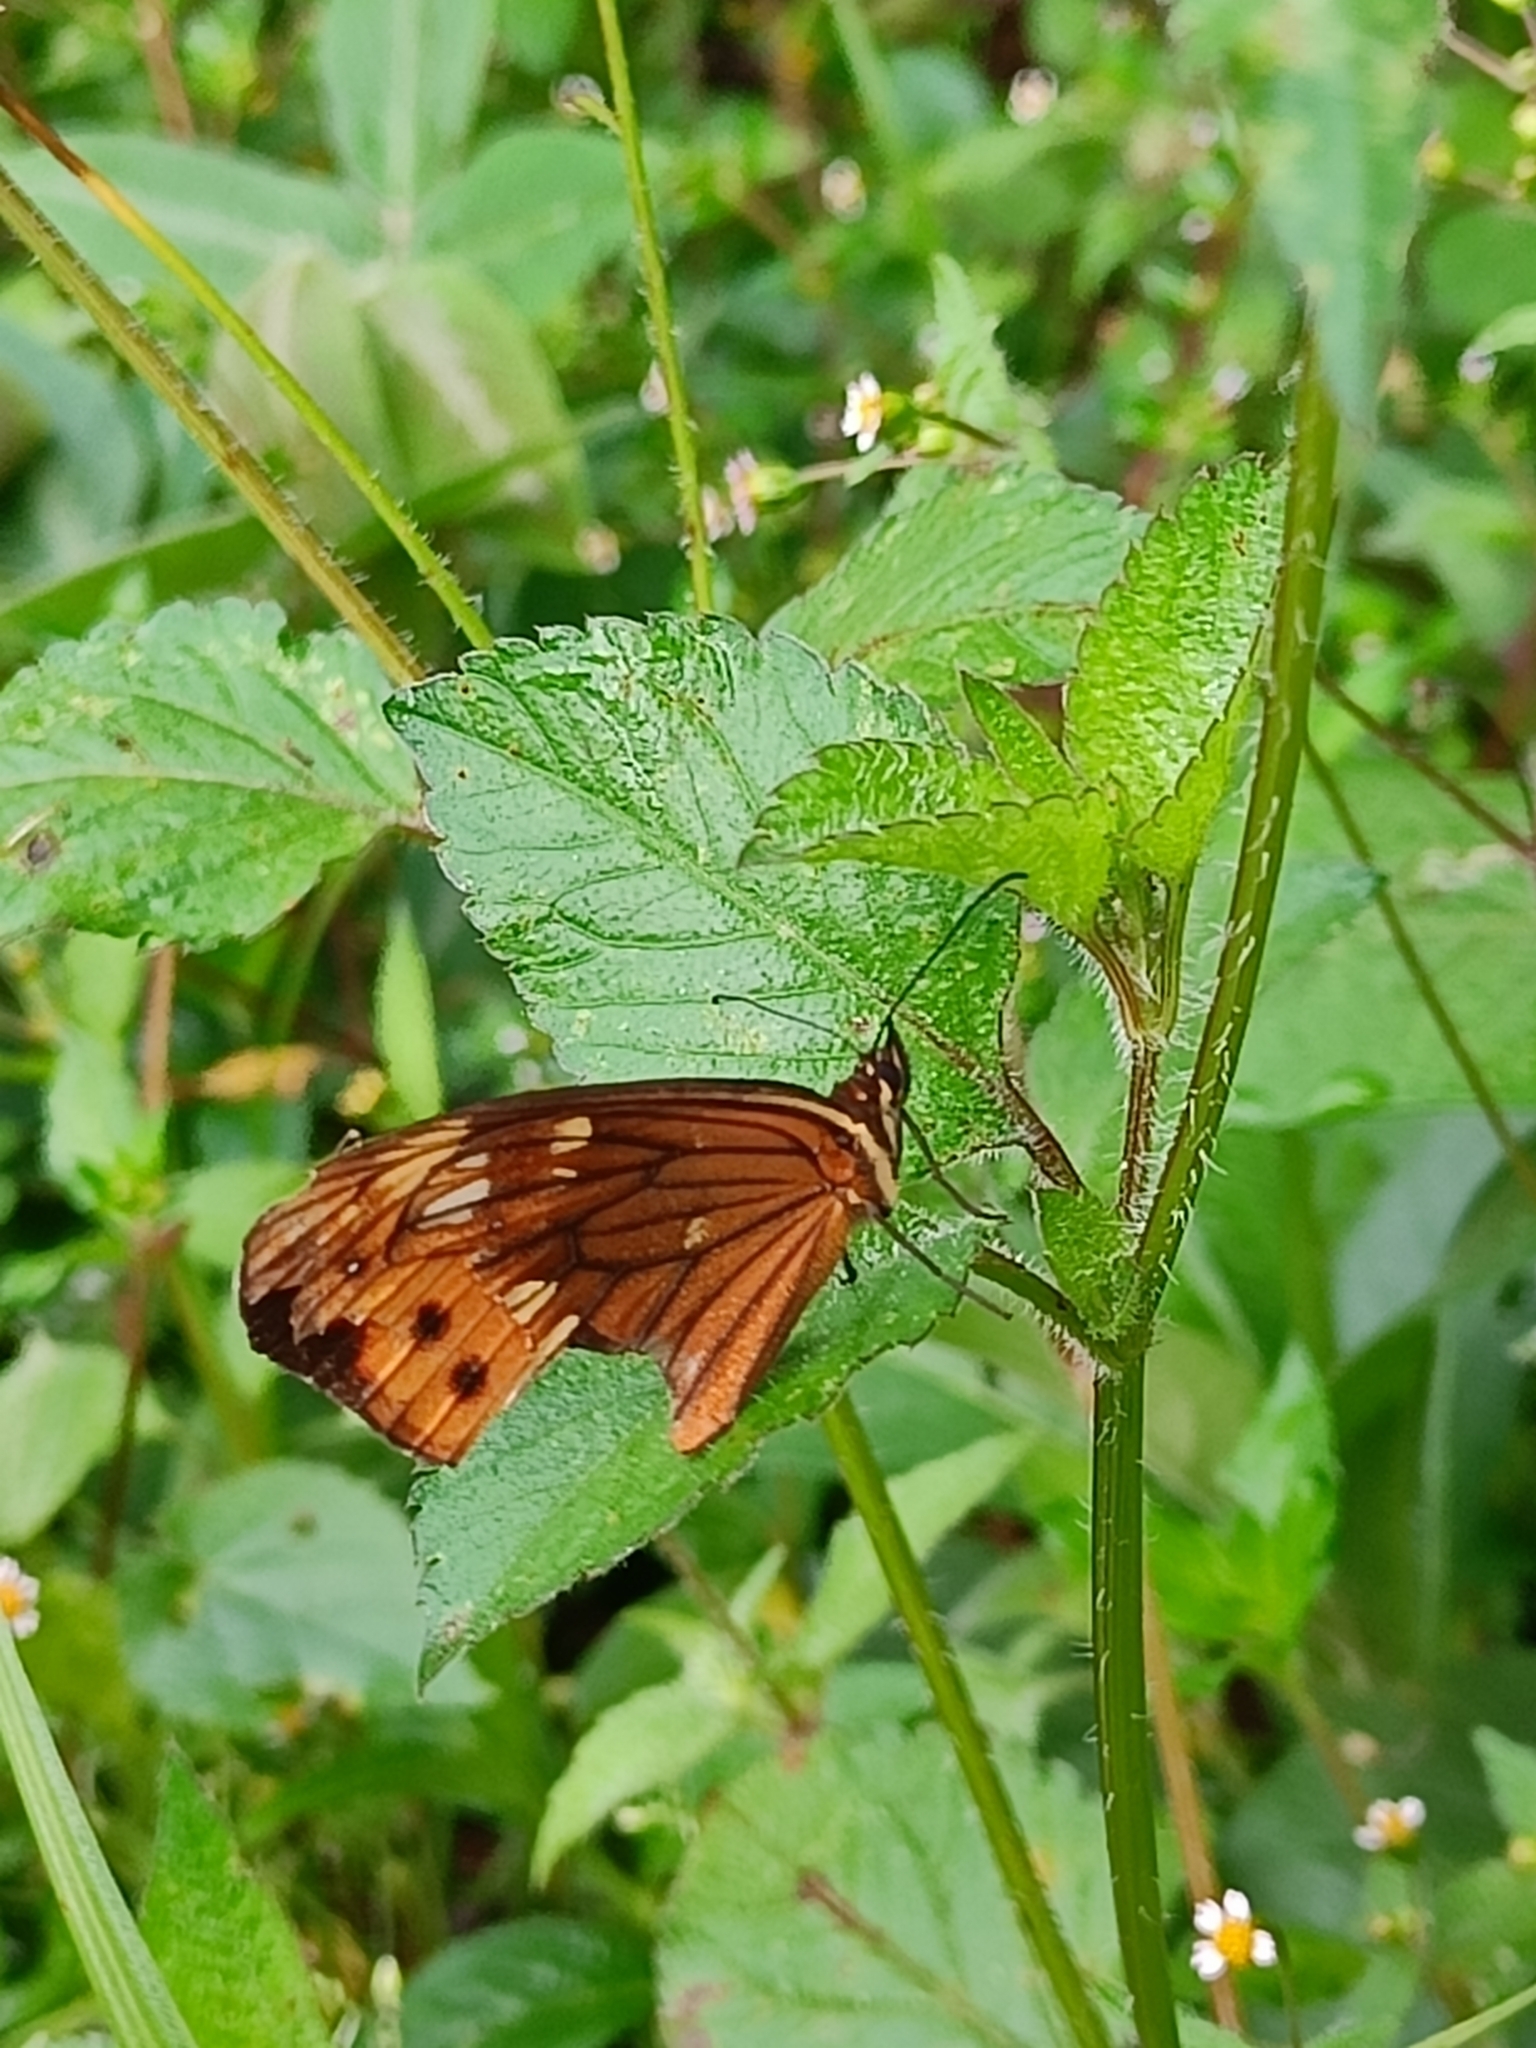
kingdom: Animalia
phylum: Arthropoda
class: Insecta
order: Lepidoptera
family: Nymphalidae
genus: Oxeoschistus
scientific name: Oxeoschistus pronax
